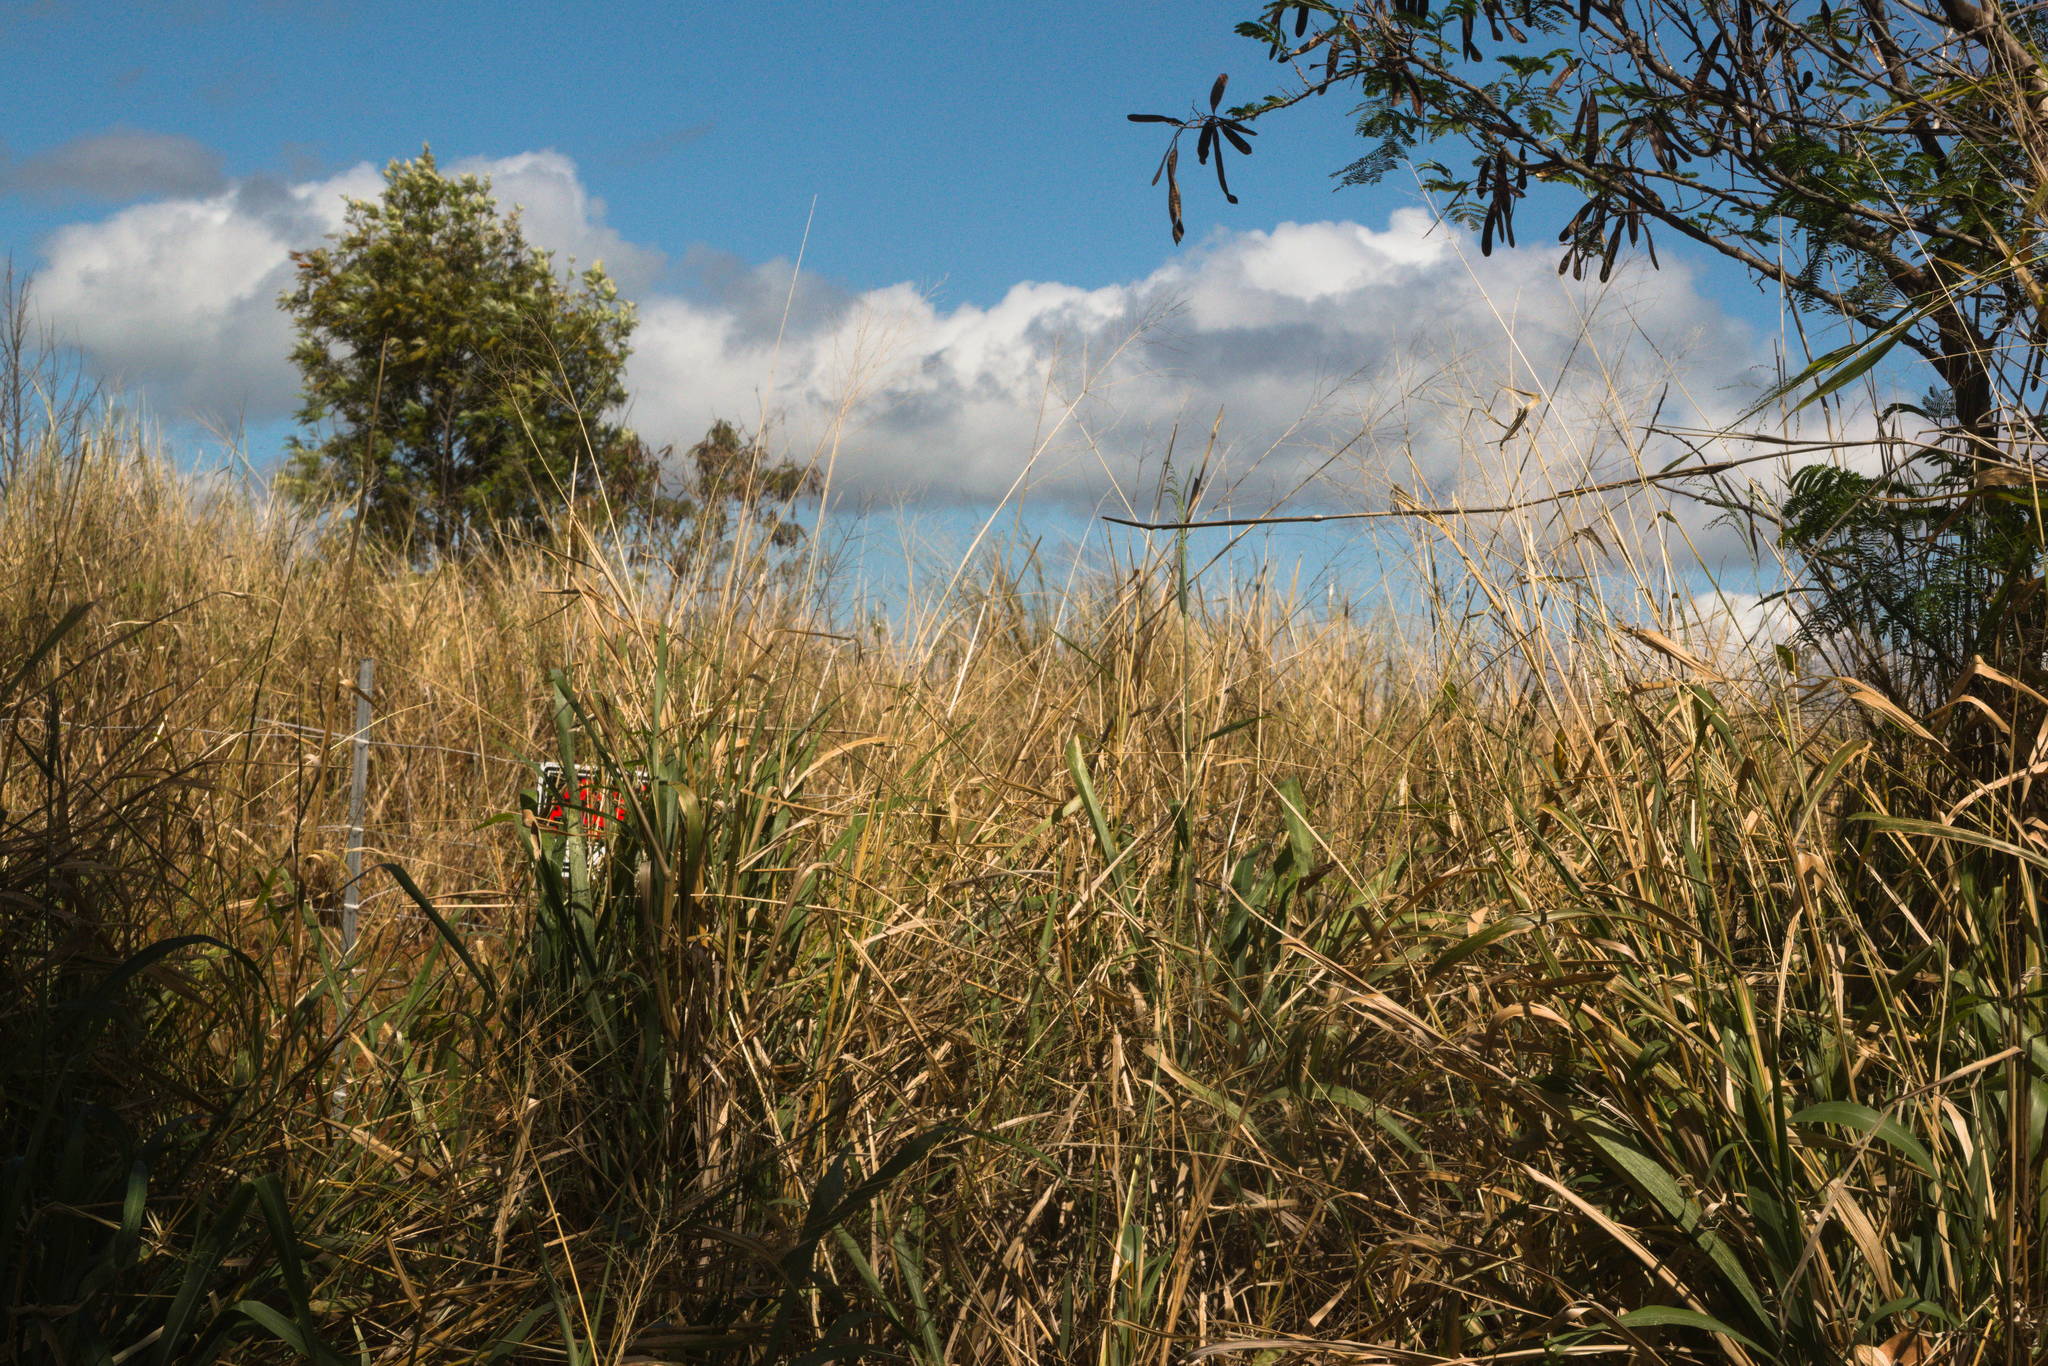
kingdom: Plantae
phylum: Tracheophyta
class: Liliopsida
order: Poales
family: Poaceae
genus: Megathyrsus
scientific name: Megathyrsus maximus
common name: Guineagrass
